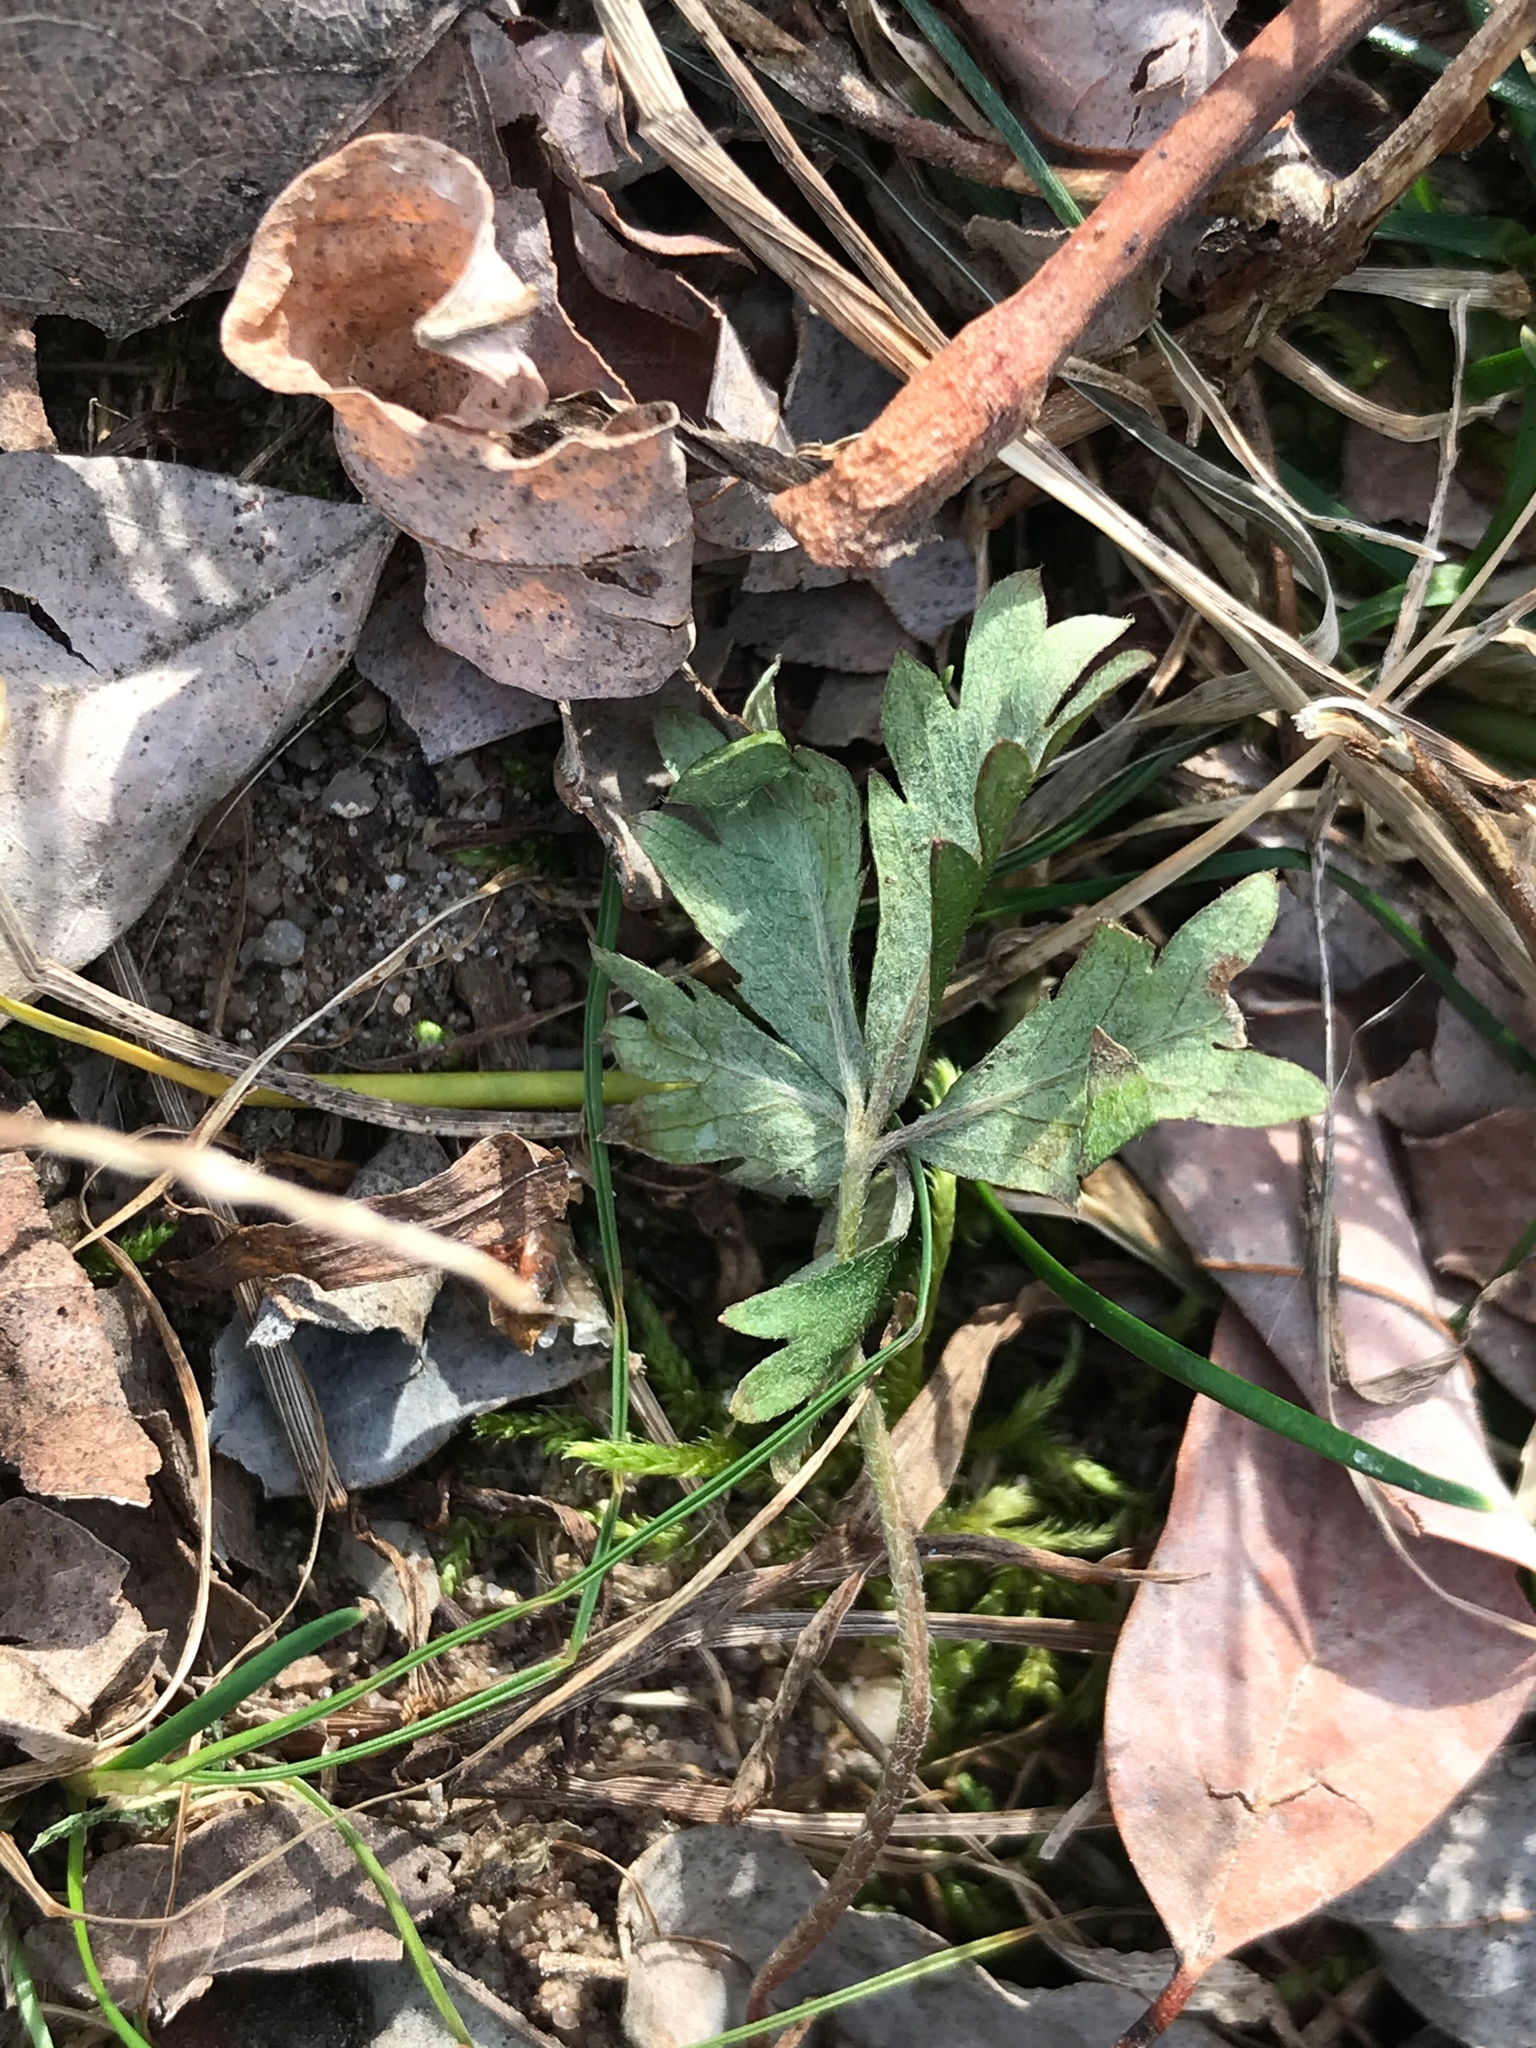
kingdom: Plantae
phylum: Tracheophyta
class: Magnoliopsida
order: Rosales
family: Rosaceae
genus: Potentilla
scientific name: Potentilla argentea
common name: Hoary cinquefoil
